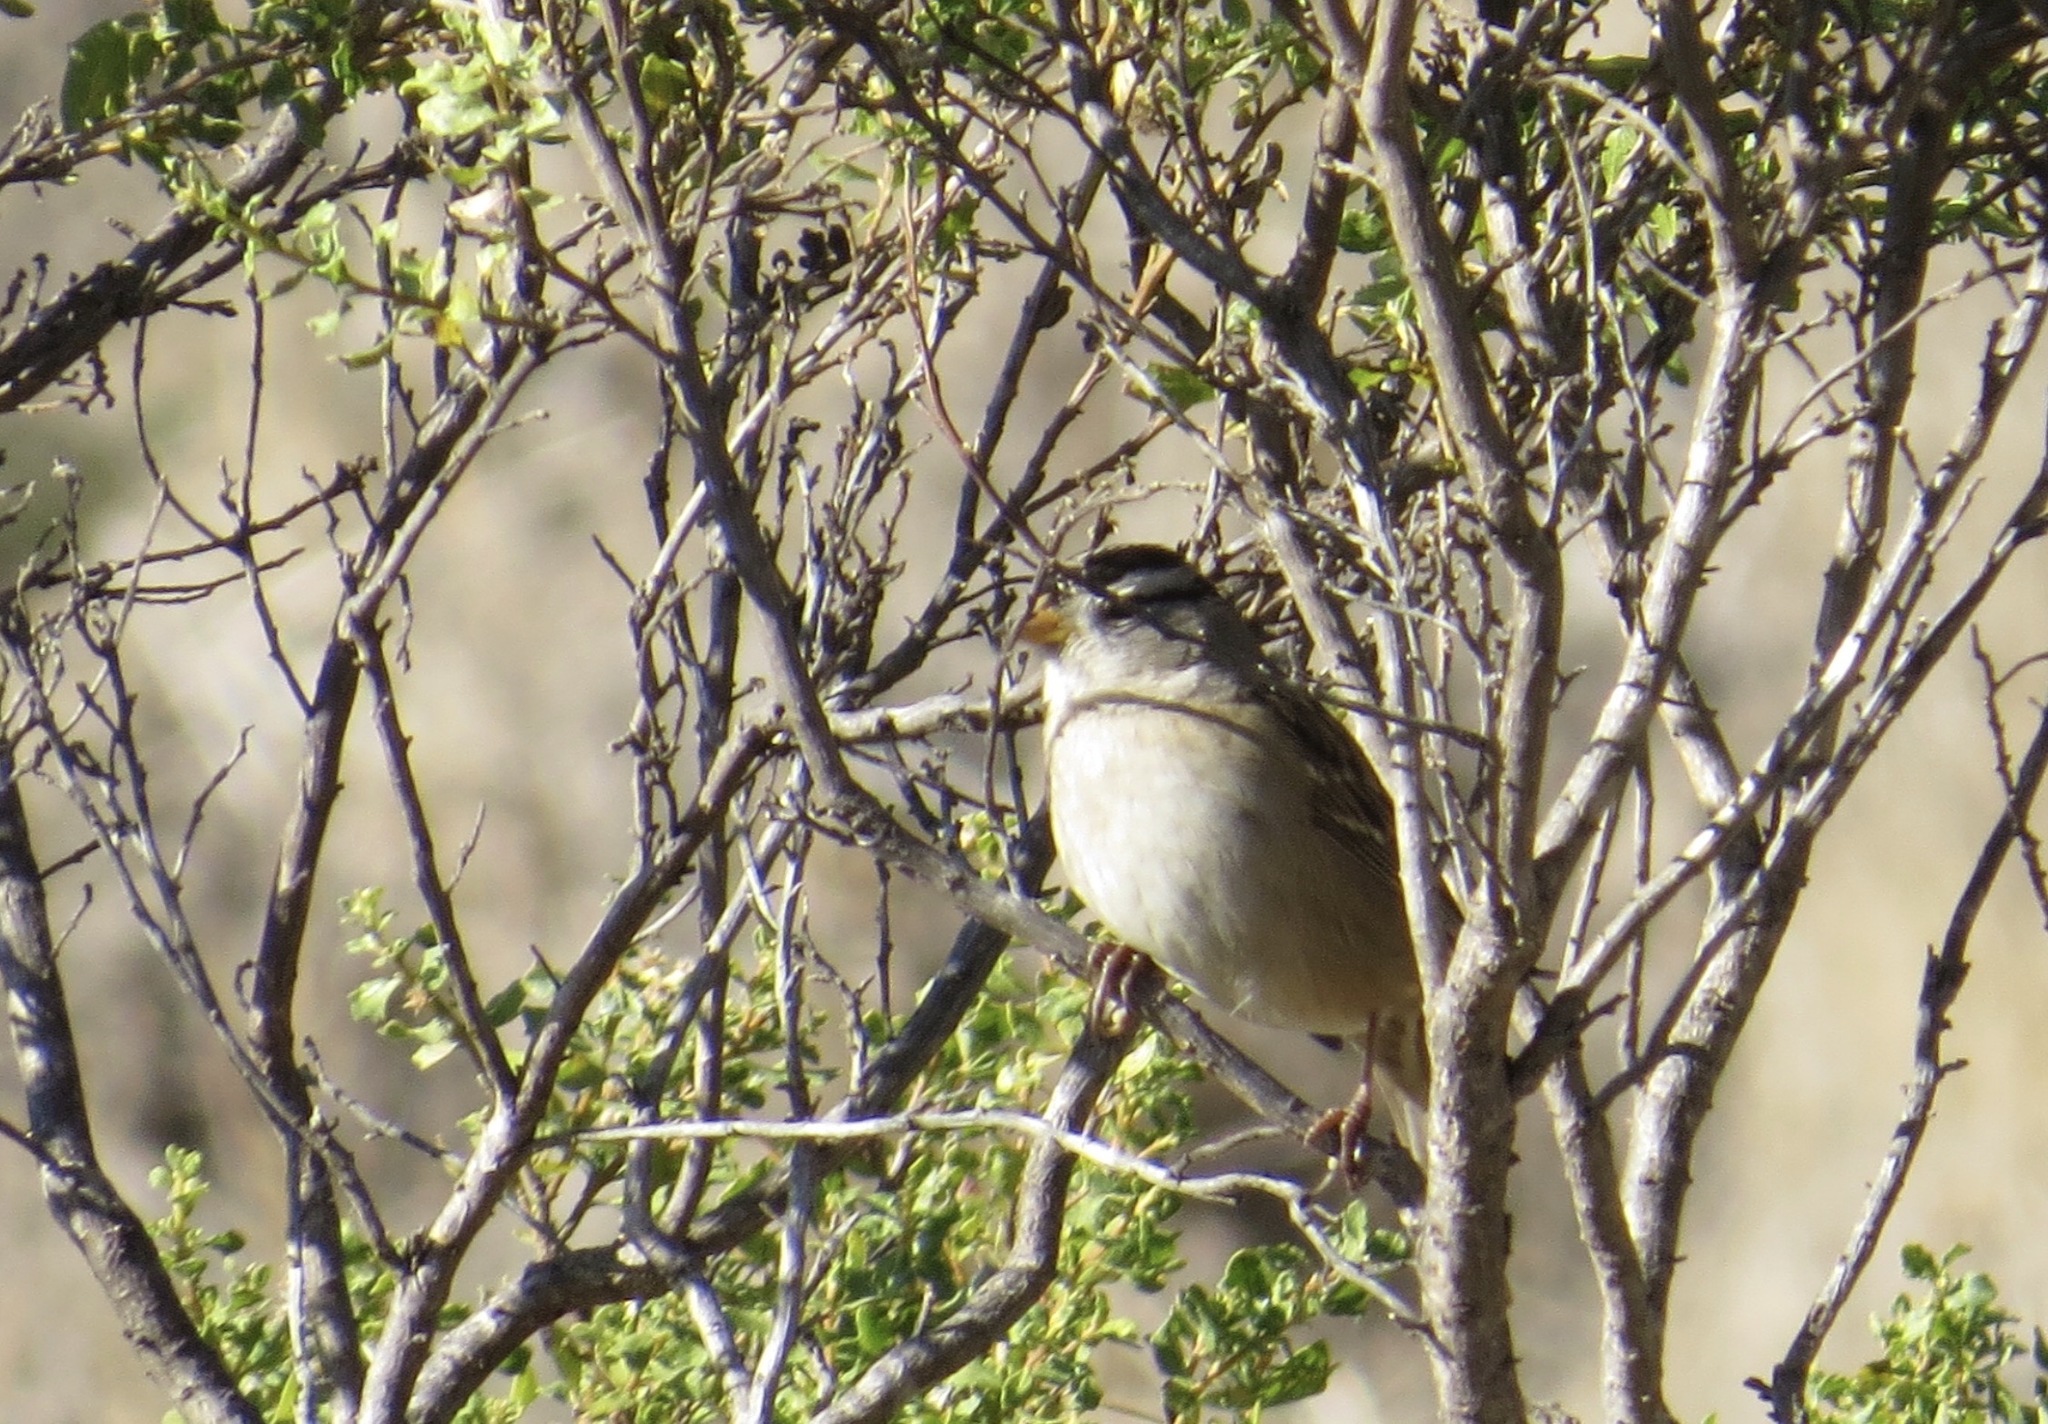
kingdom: Animalia
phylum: Chordata
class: Aves
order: Passeriformes
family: Passerellidae
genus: Zonotrichia
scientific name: Zonotrichia leucophrys
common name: White-crowned sparrow
